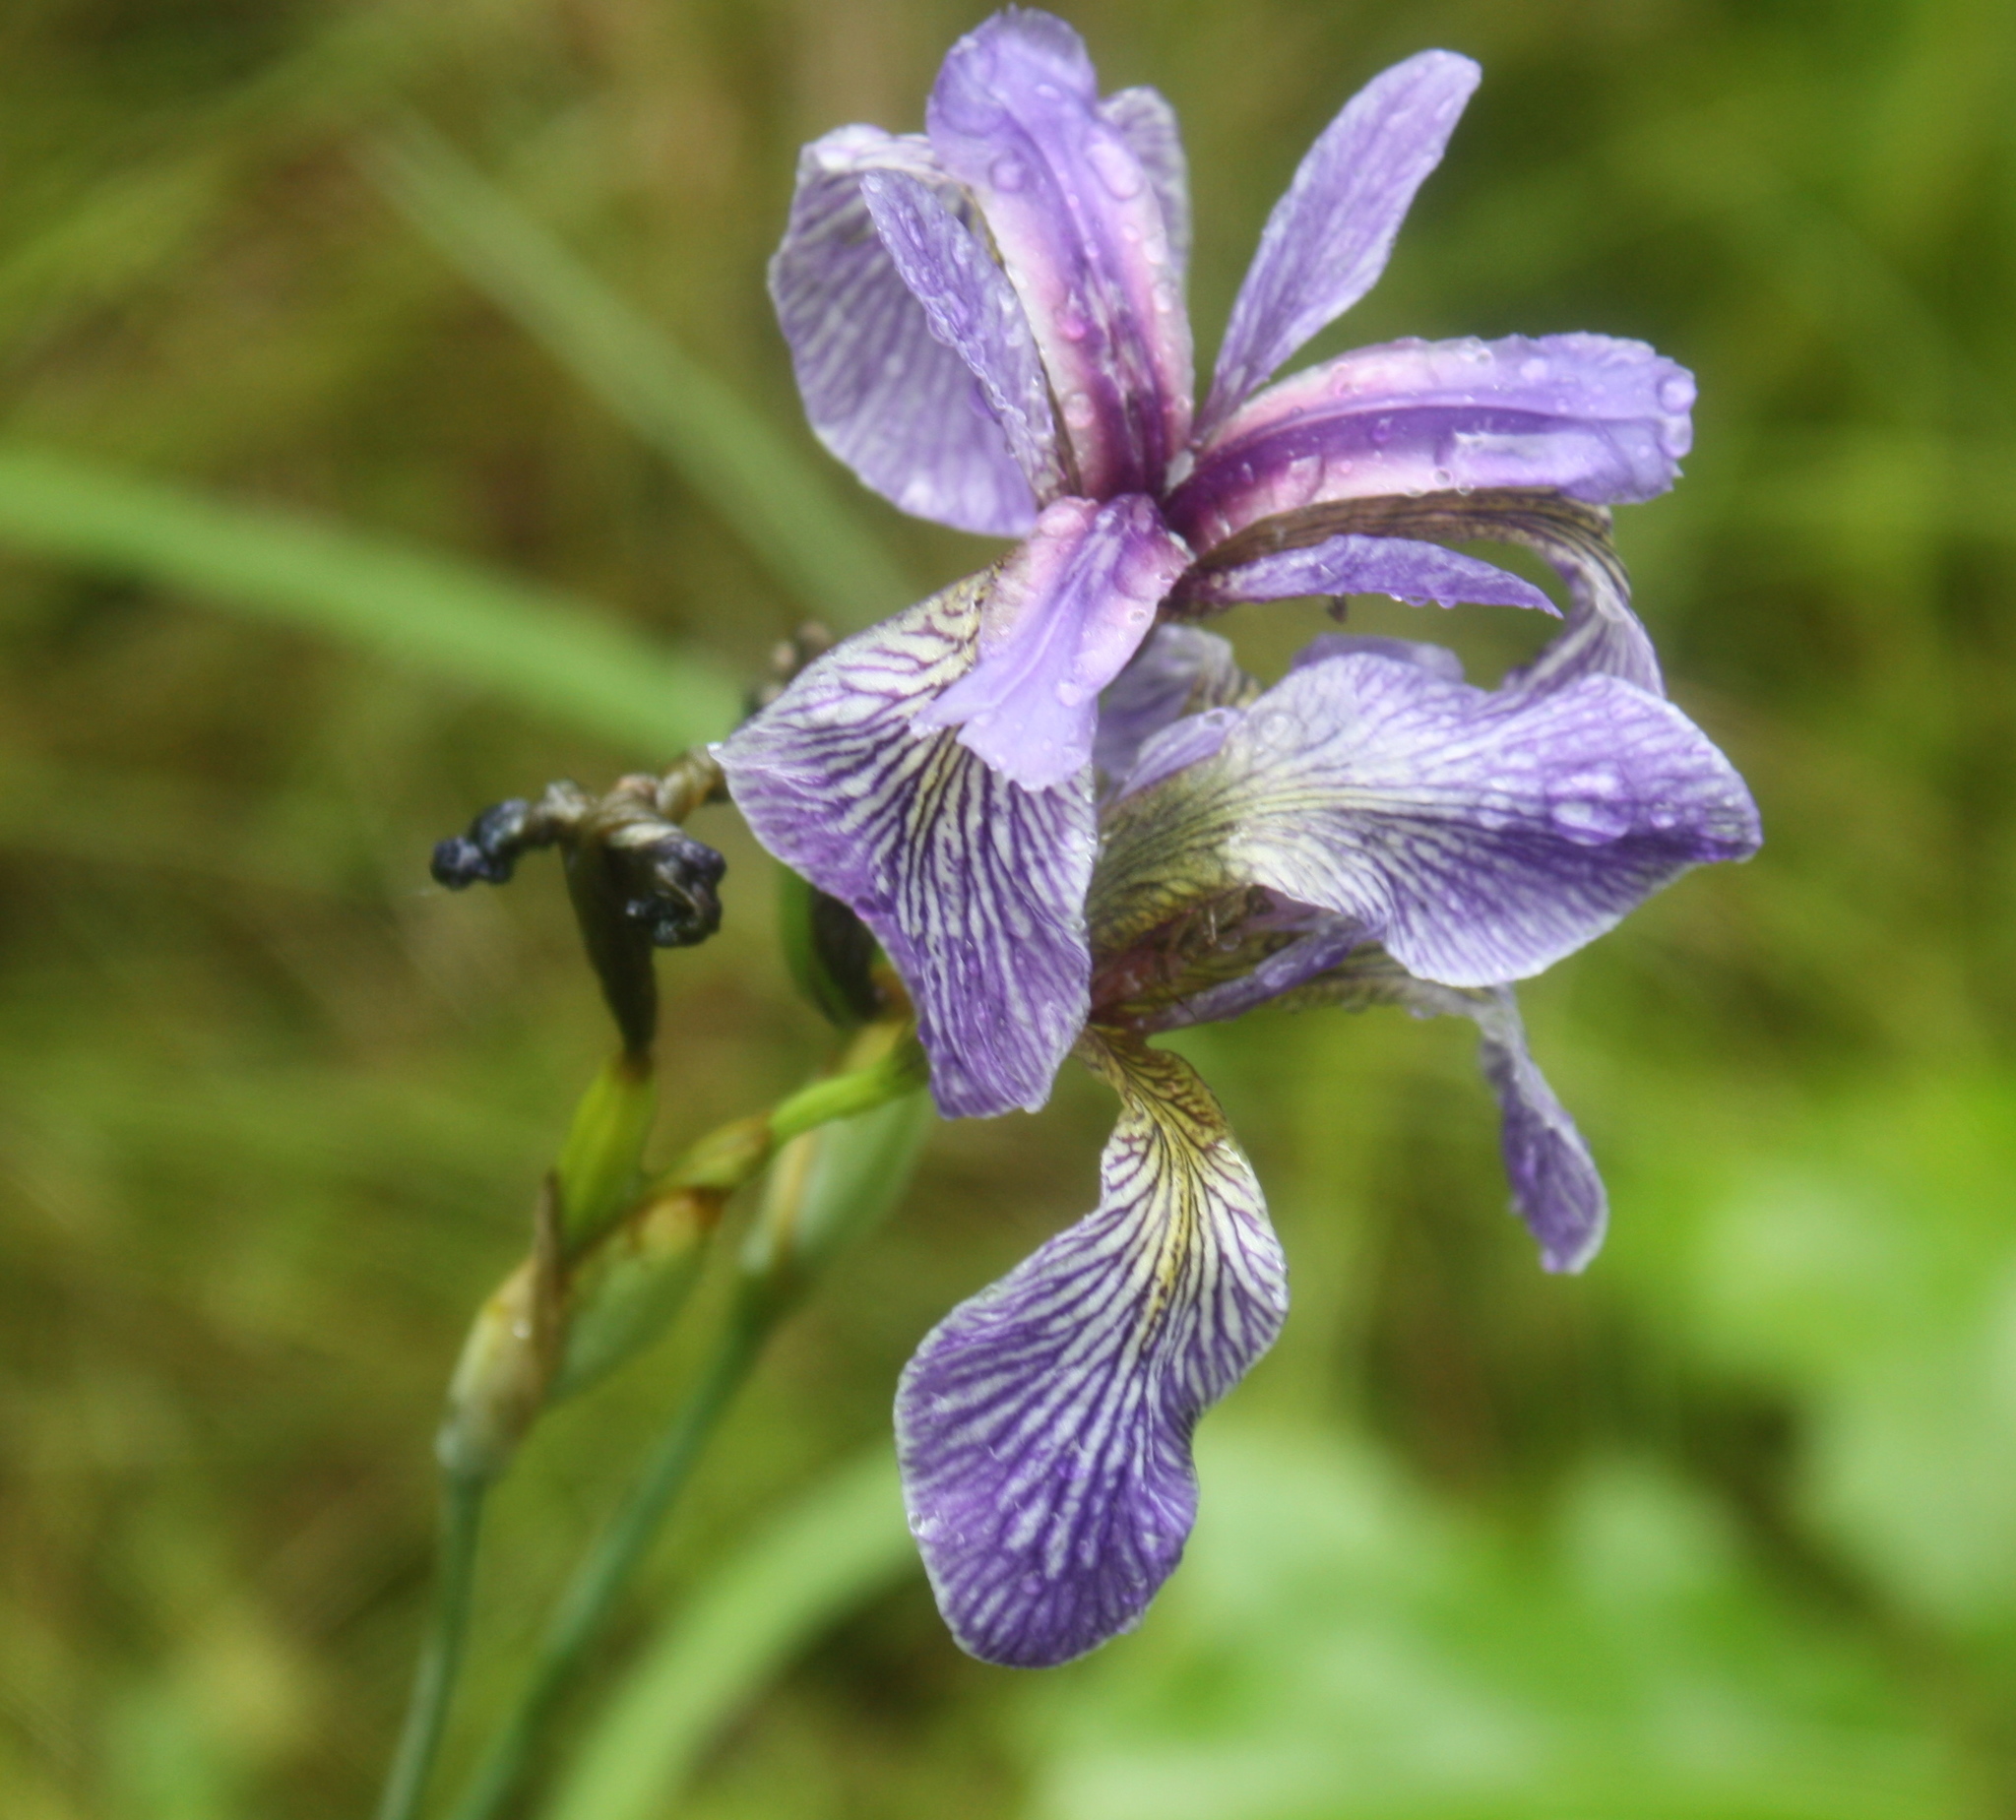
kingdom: Plantae
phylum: Tracheophyta
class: Liliopsida
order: Asparagales
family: Iridaceae
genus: Iris
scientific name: Iris versicolor
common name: Purple iris
